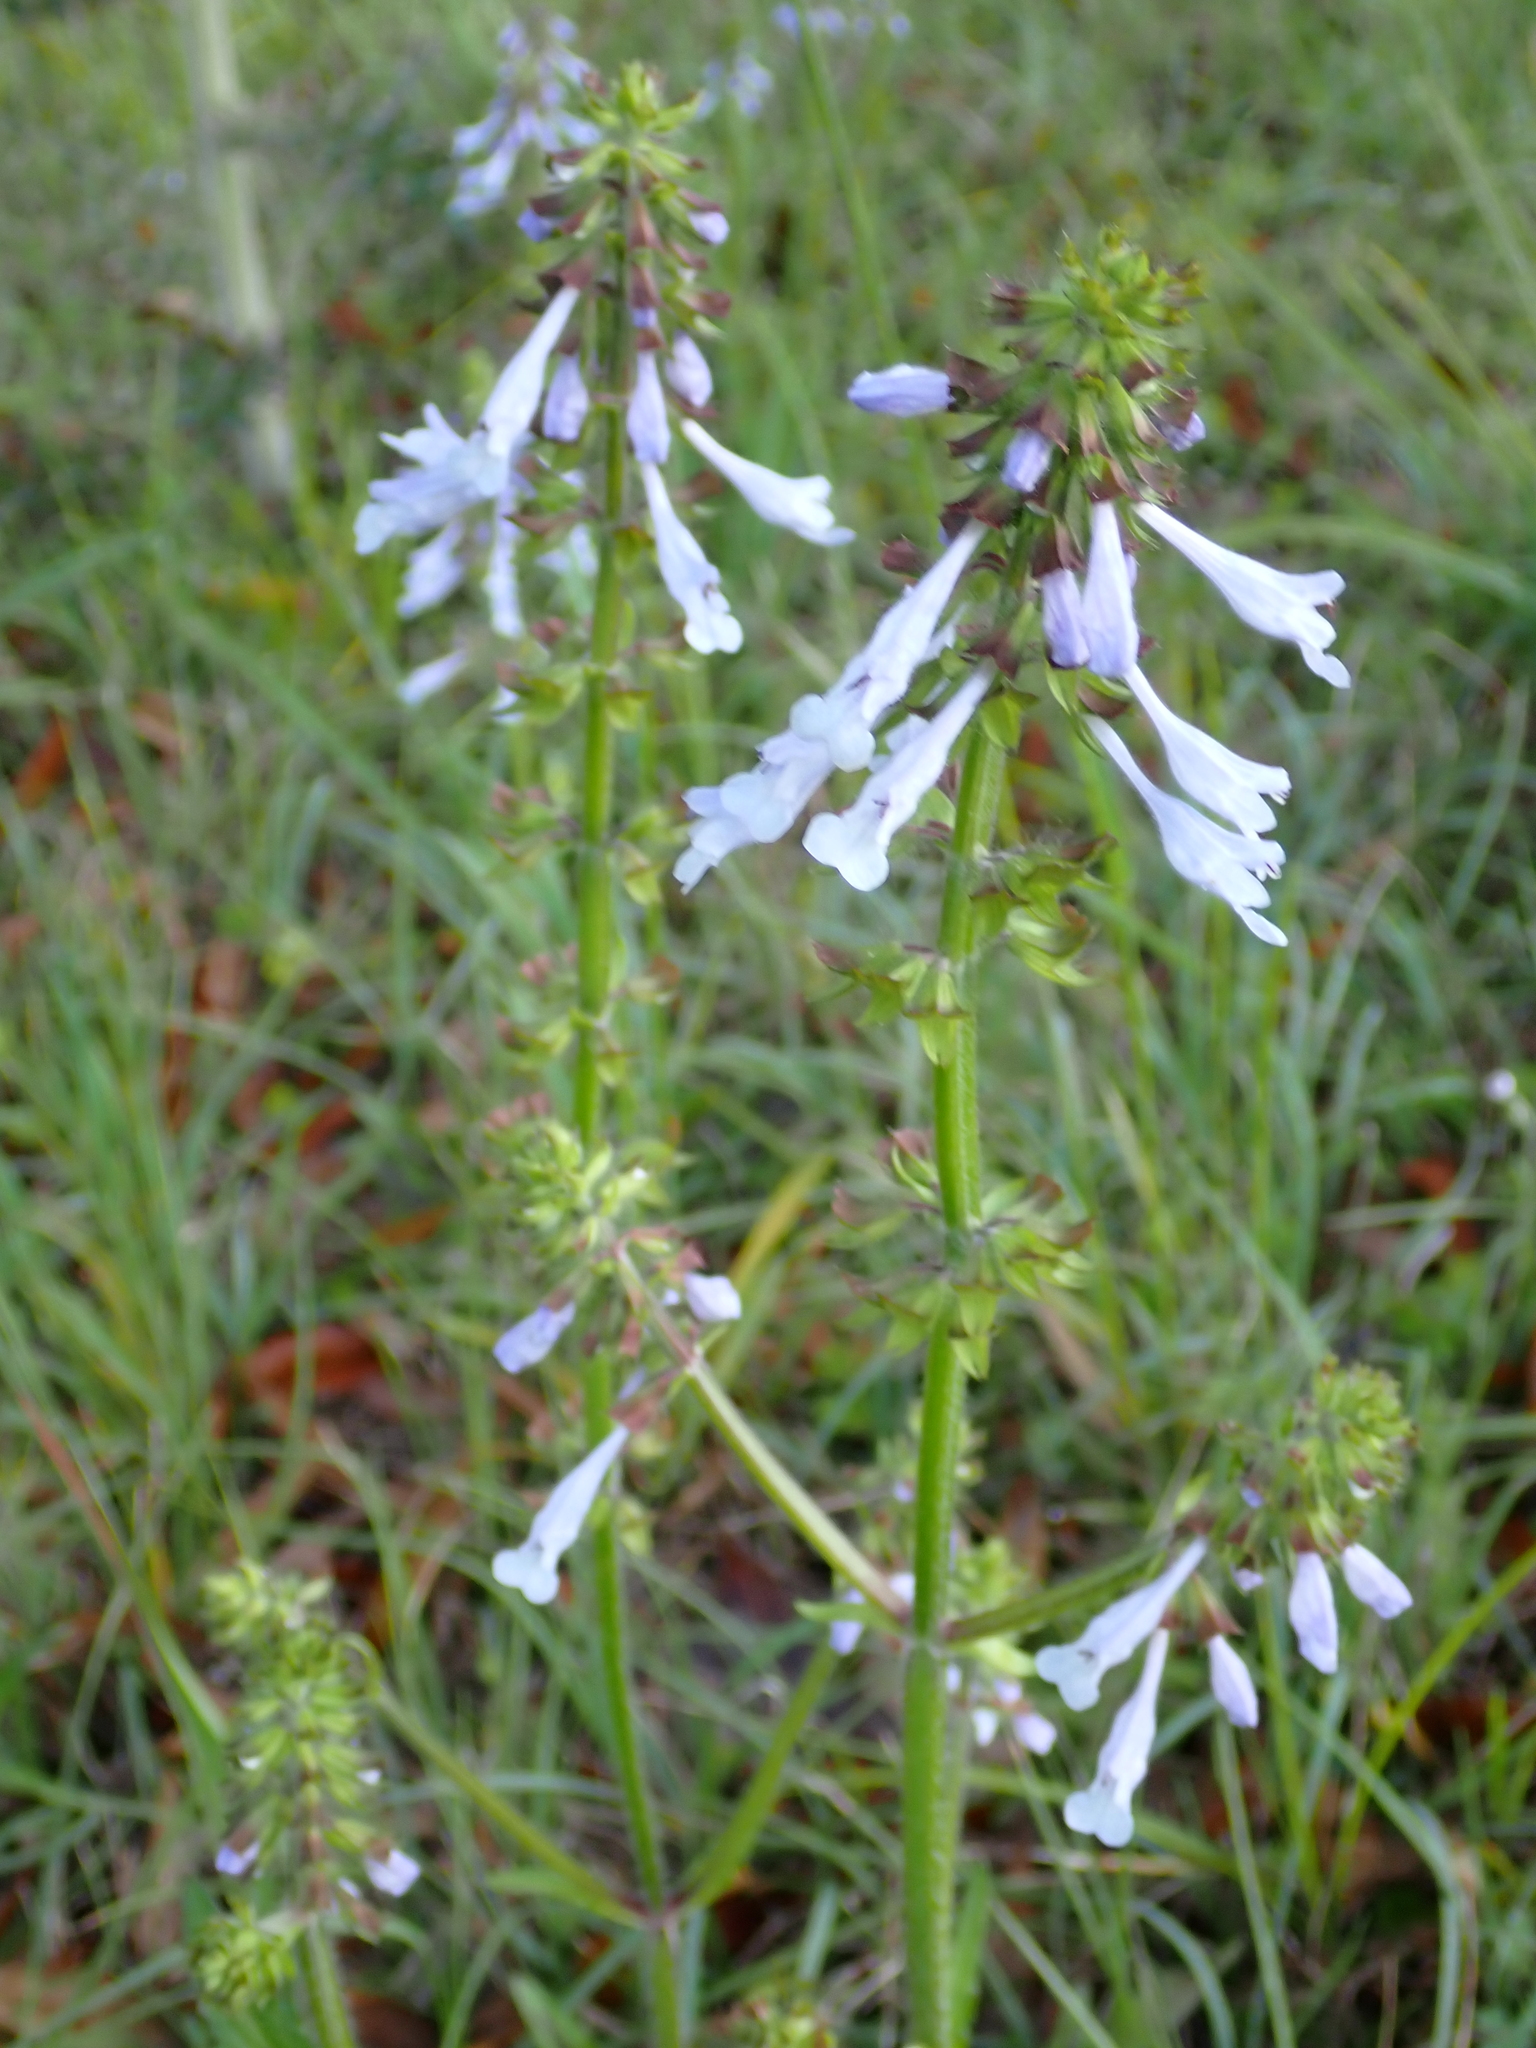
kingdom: Plantae
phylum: Tracheophyta
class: Magnoliopsida
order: Lamiales
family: Lamiaceae
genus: Salvia
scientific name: Salvia lyrata
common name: Cancerweed
